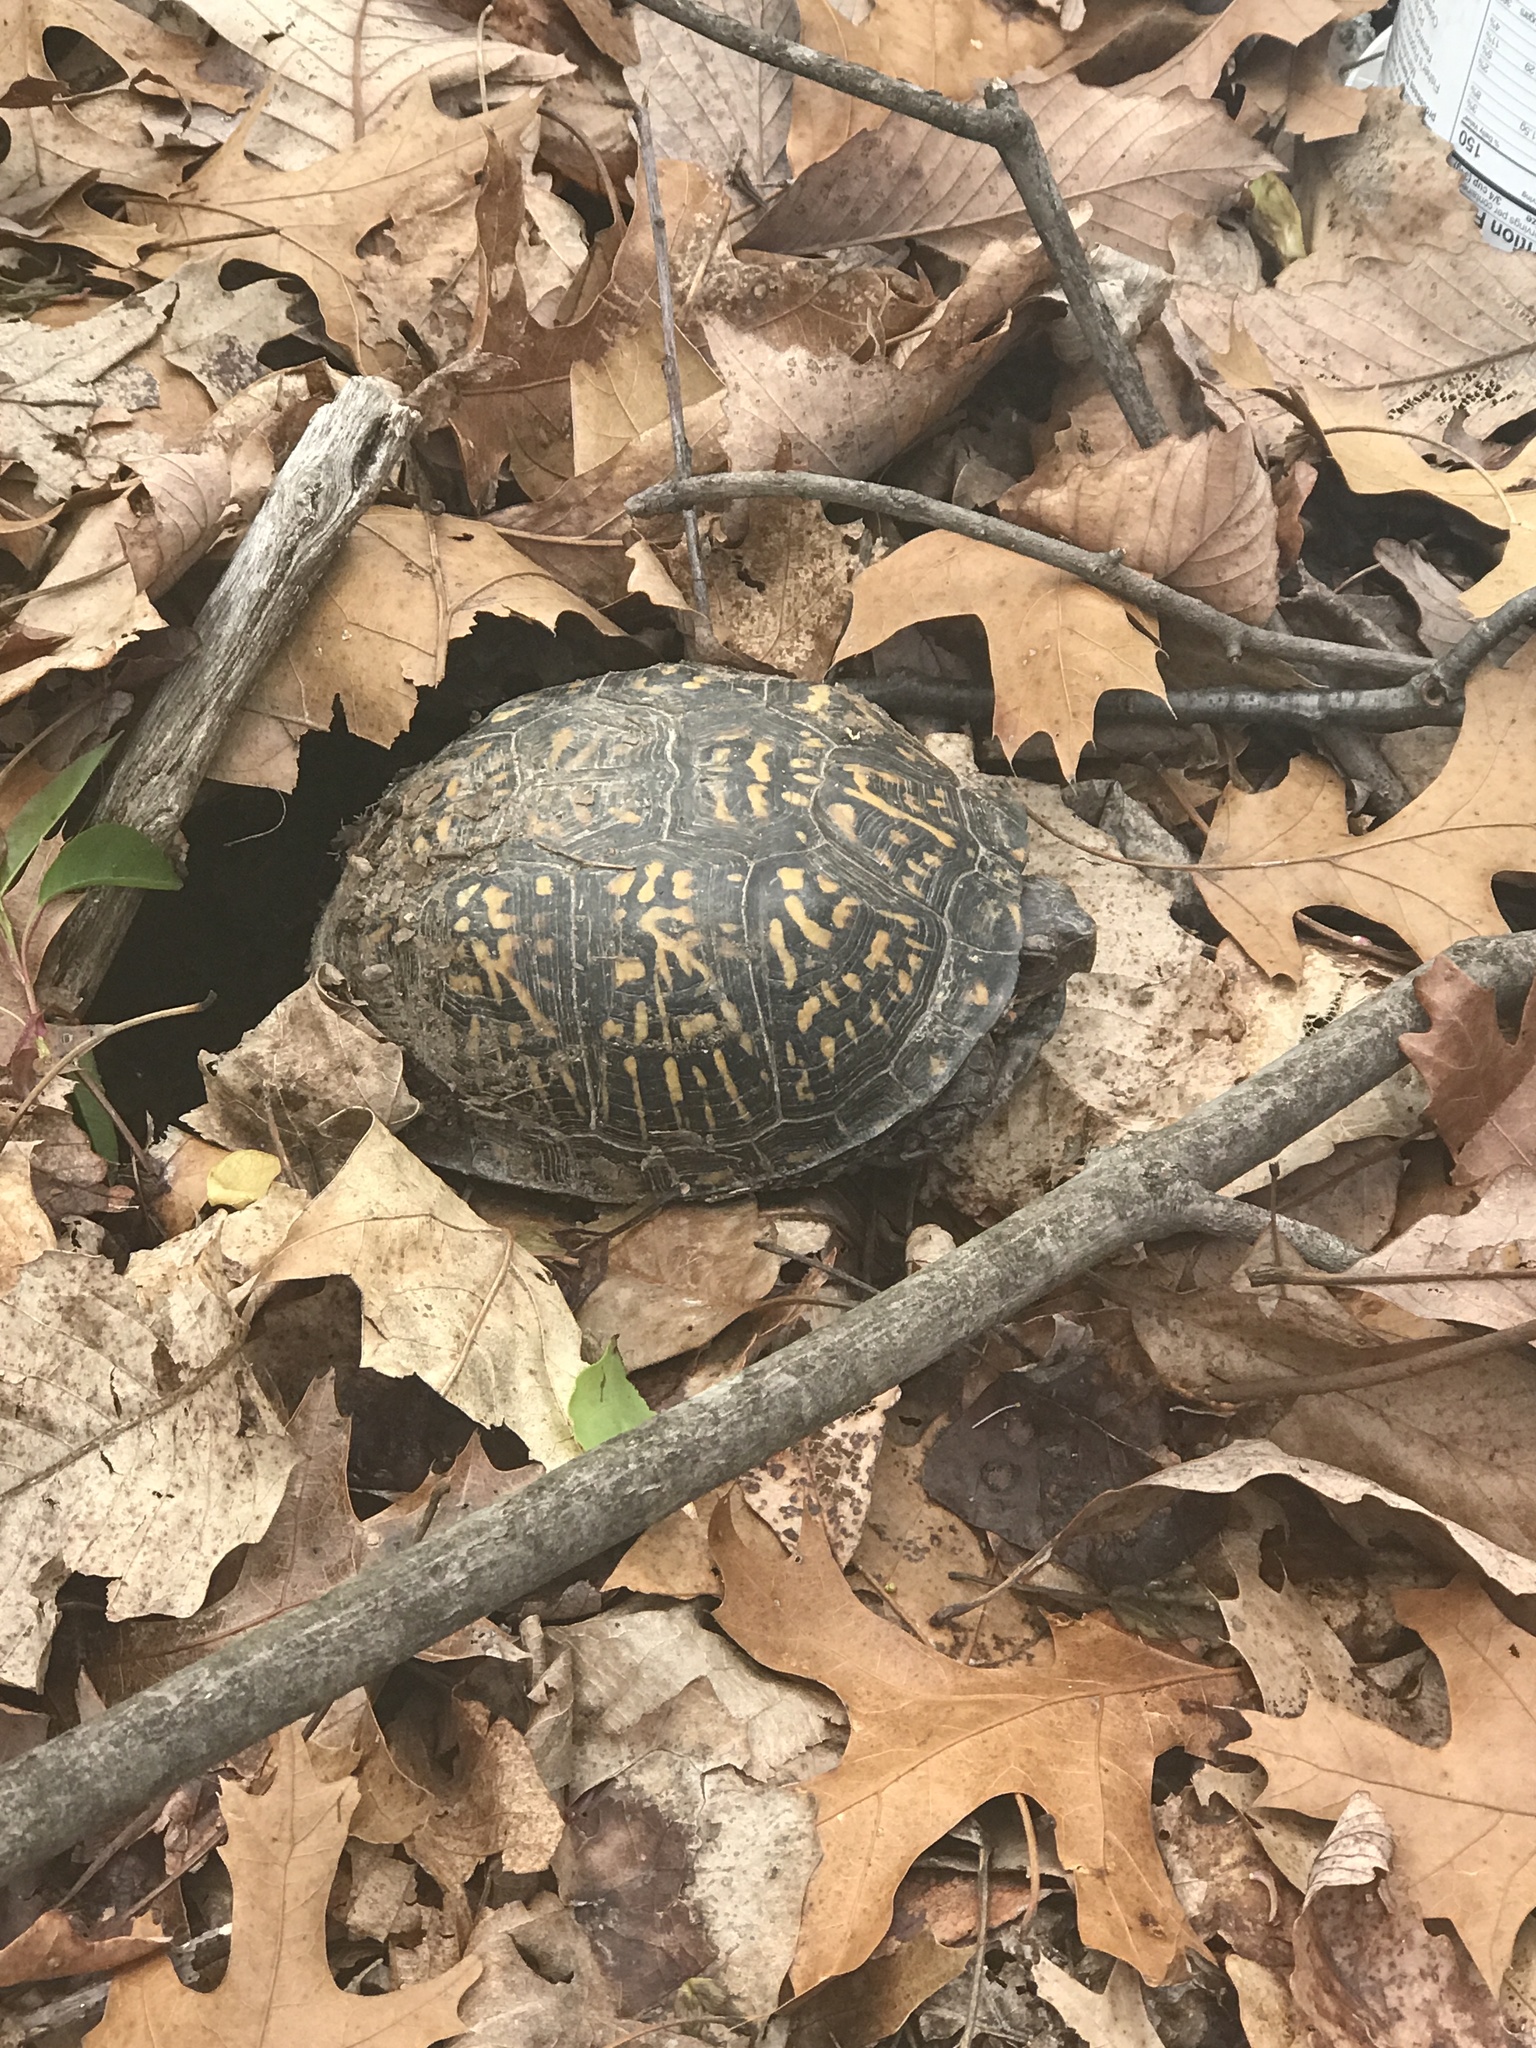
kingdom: Animalia
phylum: Chordata
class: Testudines
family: Emydidae
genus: Terrapene
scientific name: Terrapene carolina
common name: Common box turtle
